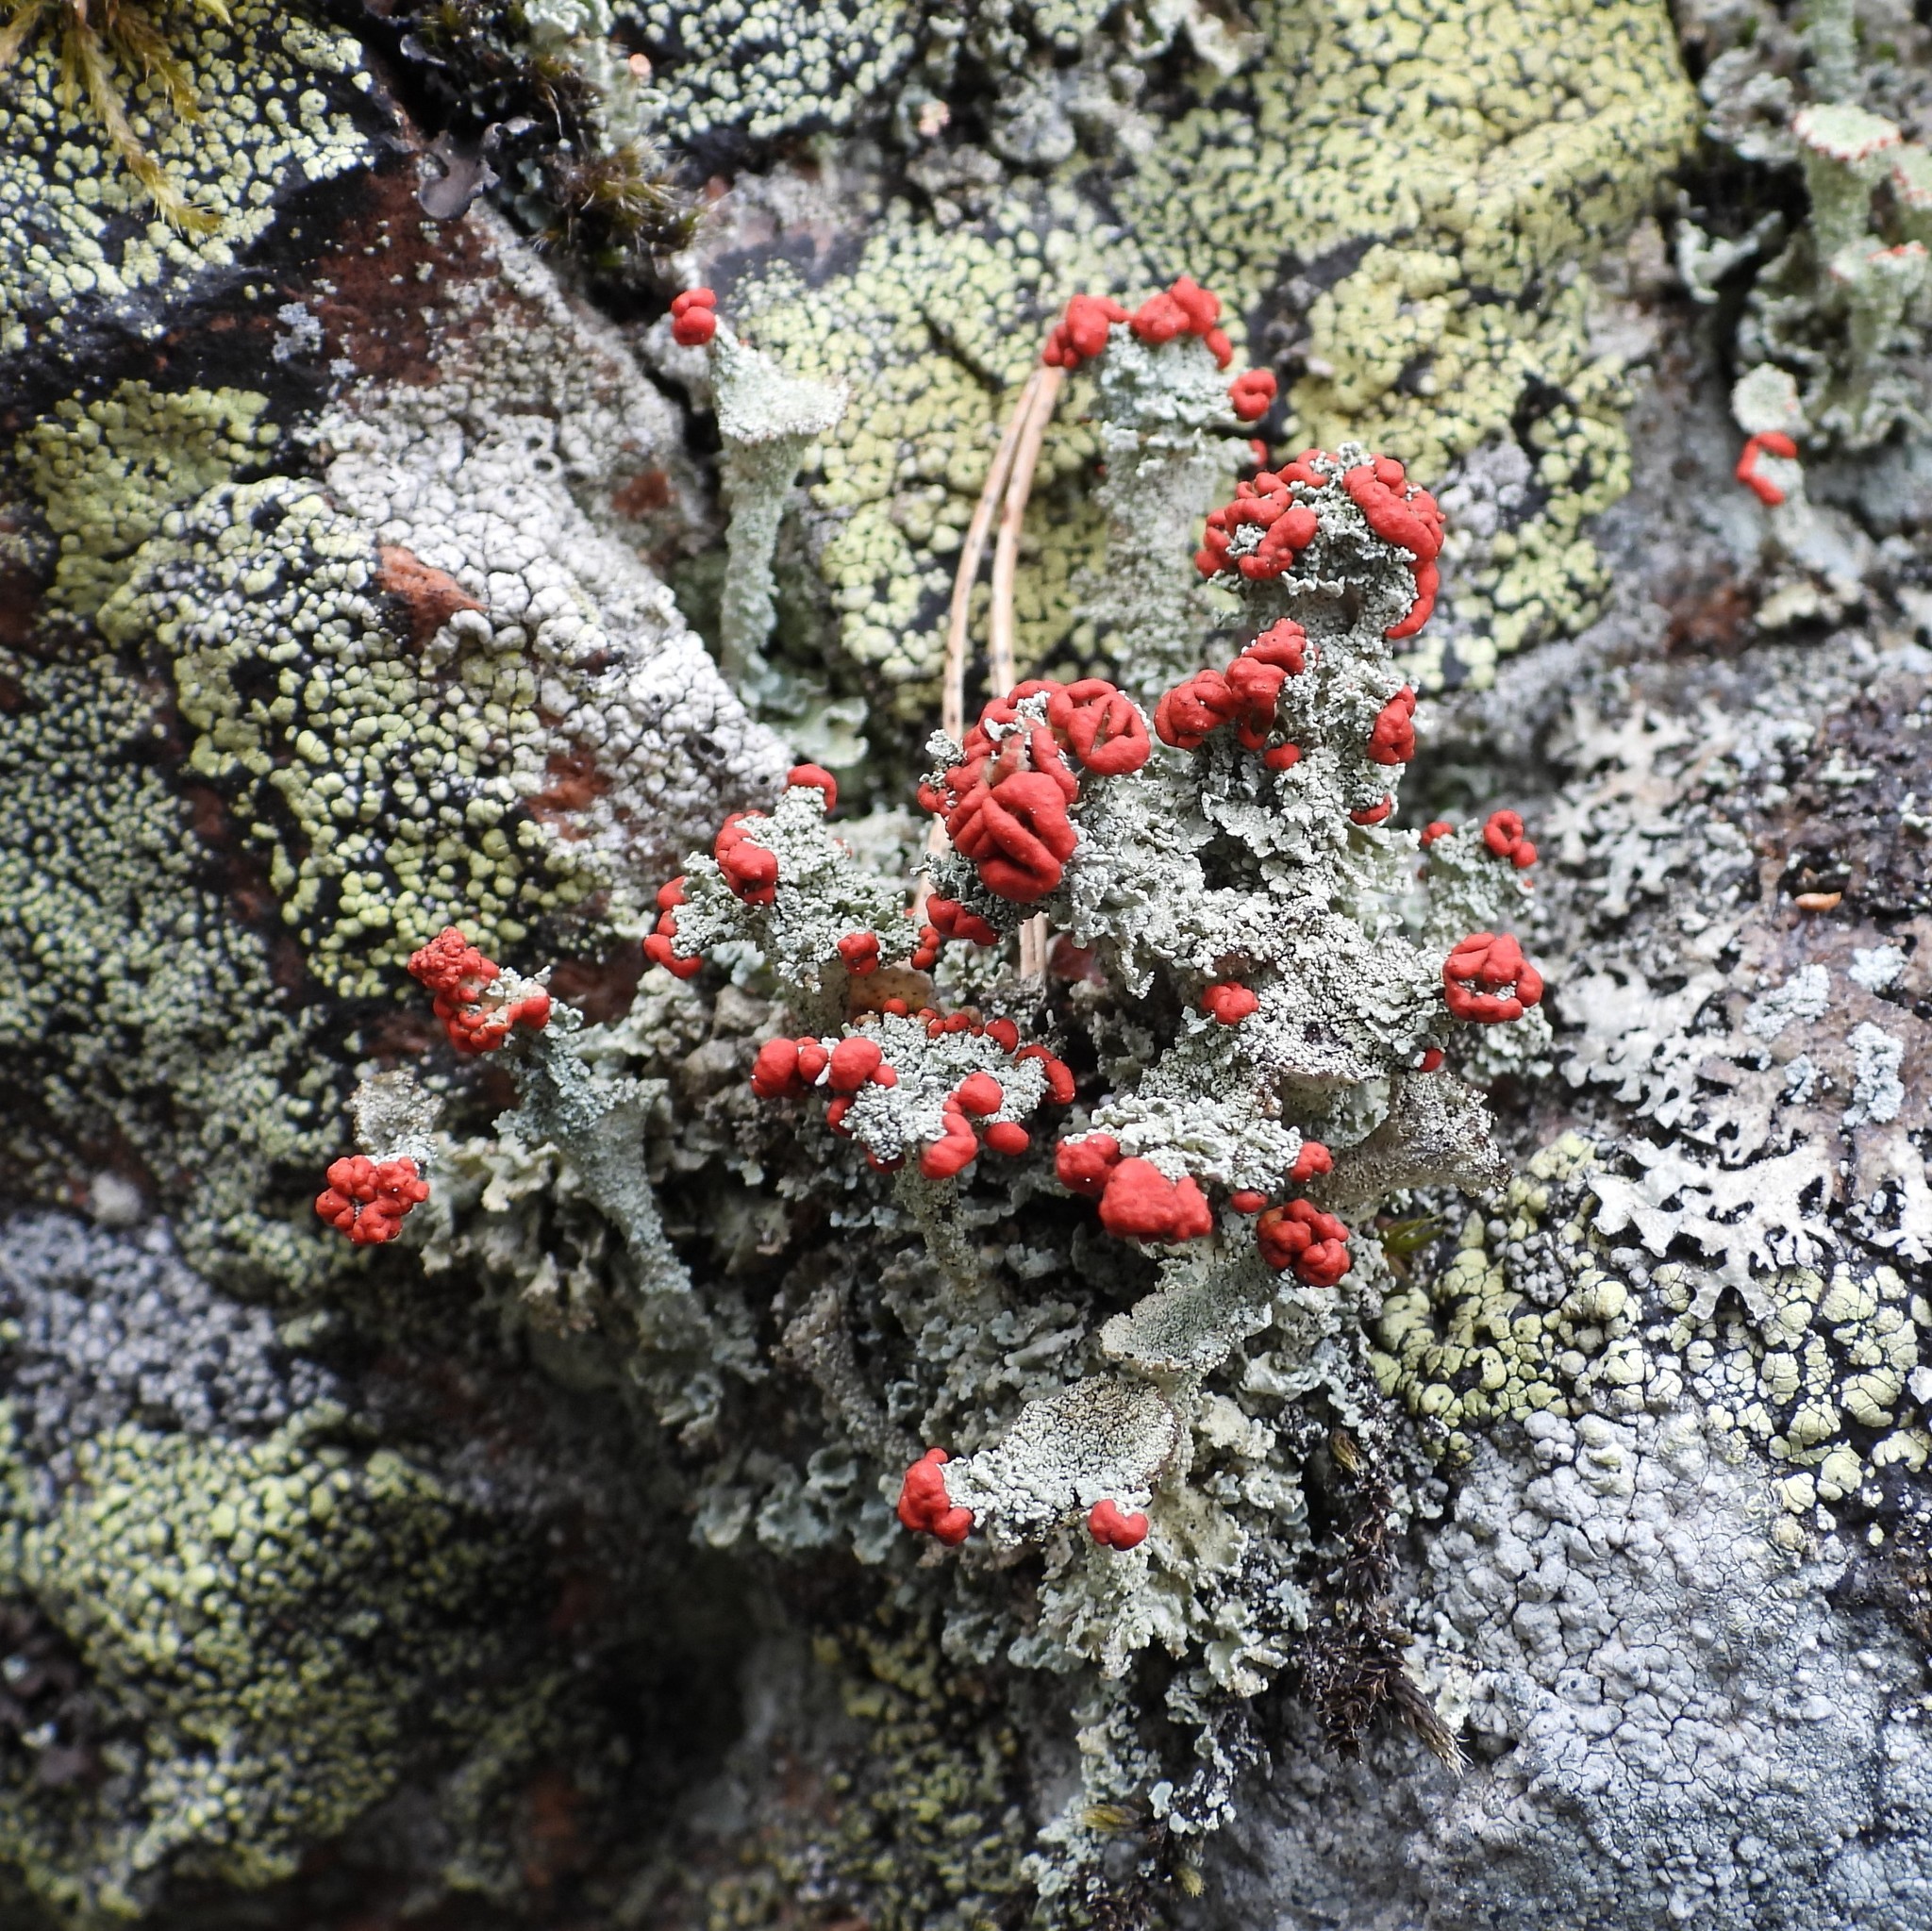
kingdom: Fungi
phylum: Ascomycota
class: Lecanoromycetes
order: Lecanorales
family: Cladoniaceae
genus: Cladonia
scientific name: Cladonia diversa
